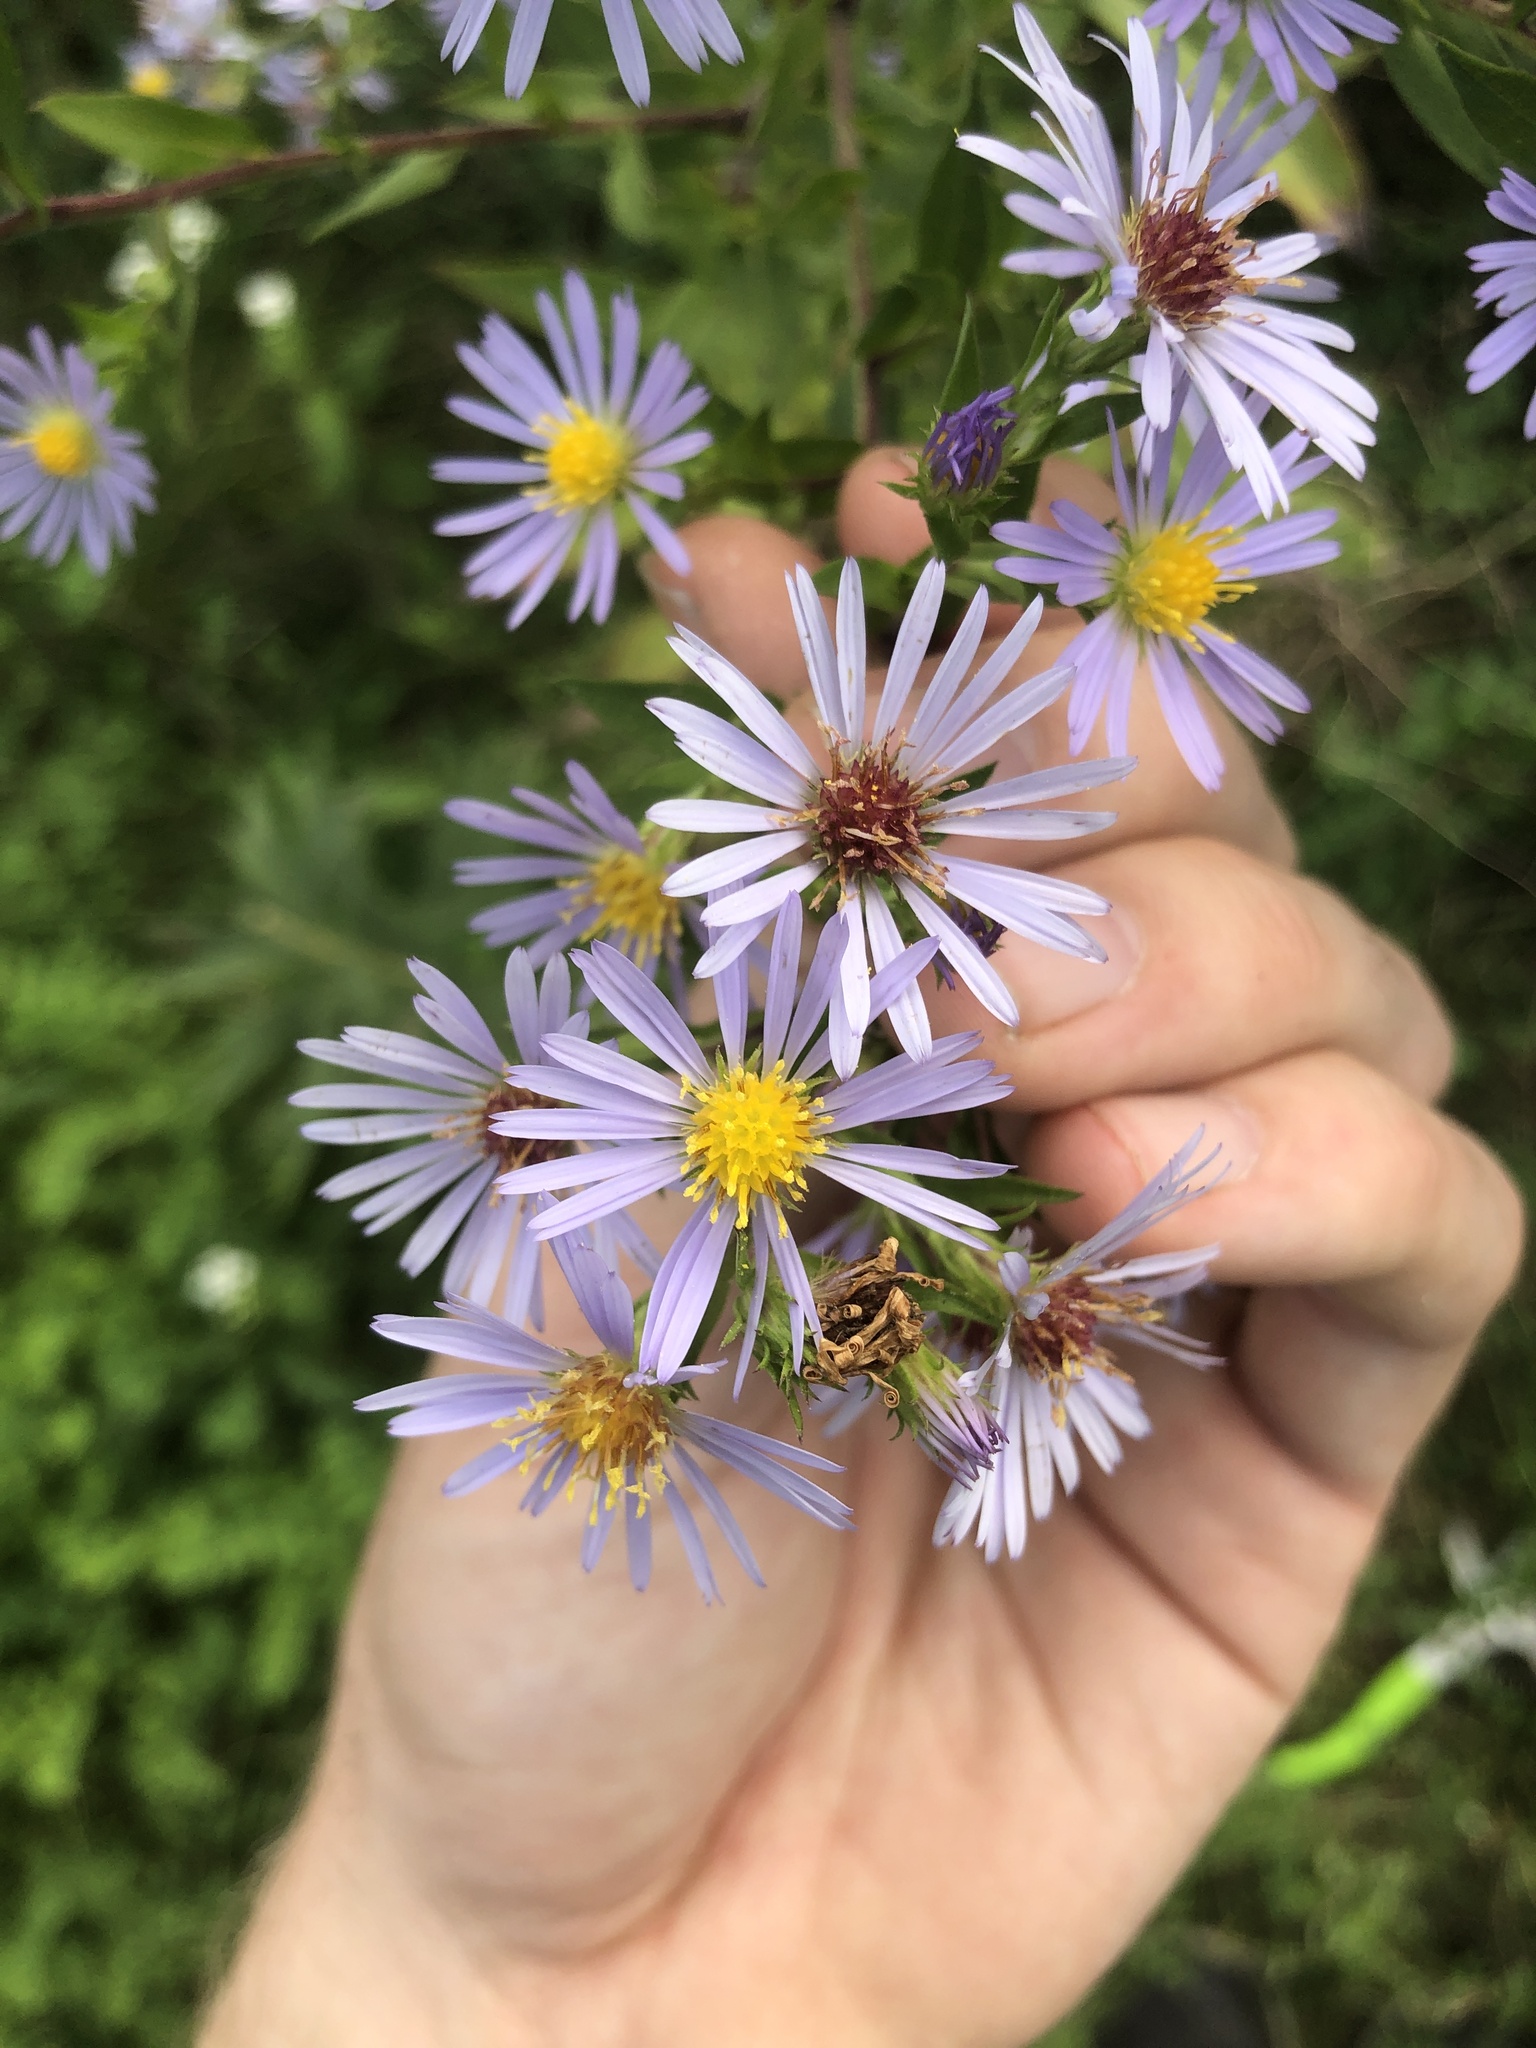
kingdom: Plantae
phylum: Tracheophyta
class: Magnoliopsida
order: Asterales
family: Asteraceae
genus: Symphyotrichum
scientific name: Symphyotrichum puniceum
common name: Bog aster
